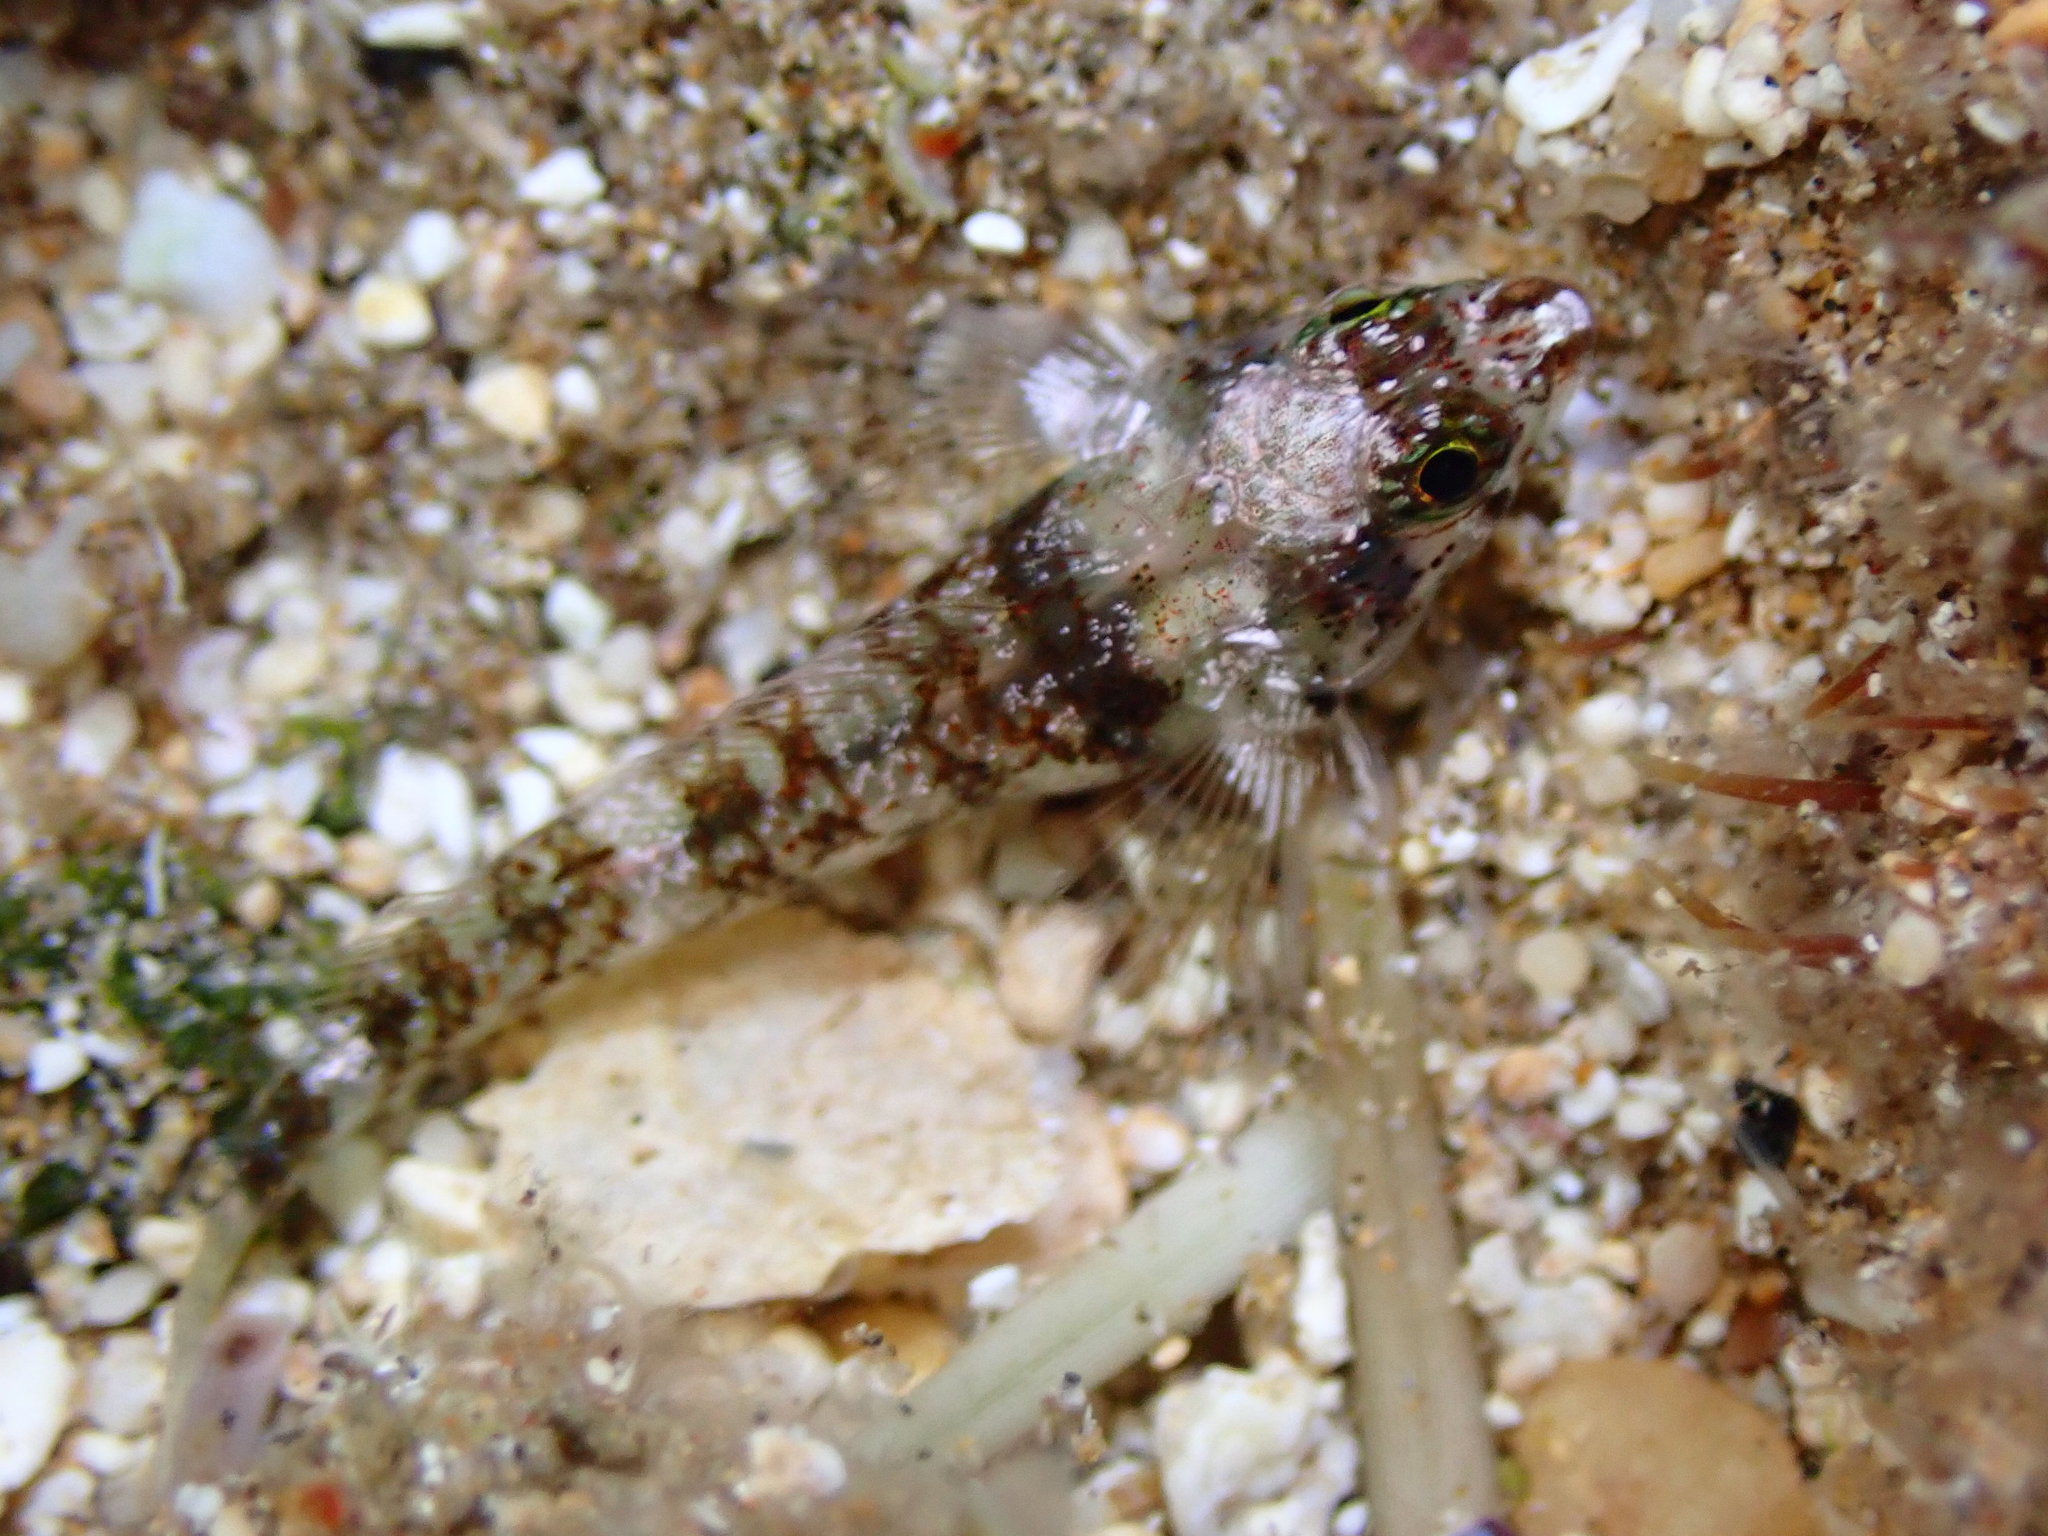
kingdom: Animalia
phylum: Chordata
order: Perciformes
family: Tripterygiidae
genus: Enneapterygius
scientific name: Enneapterygius atriceps
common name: Hawaiian blackhead triplefin
